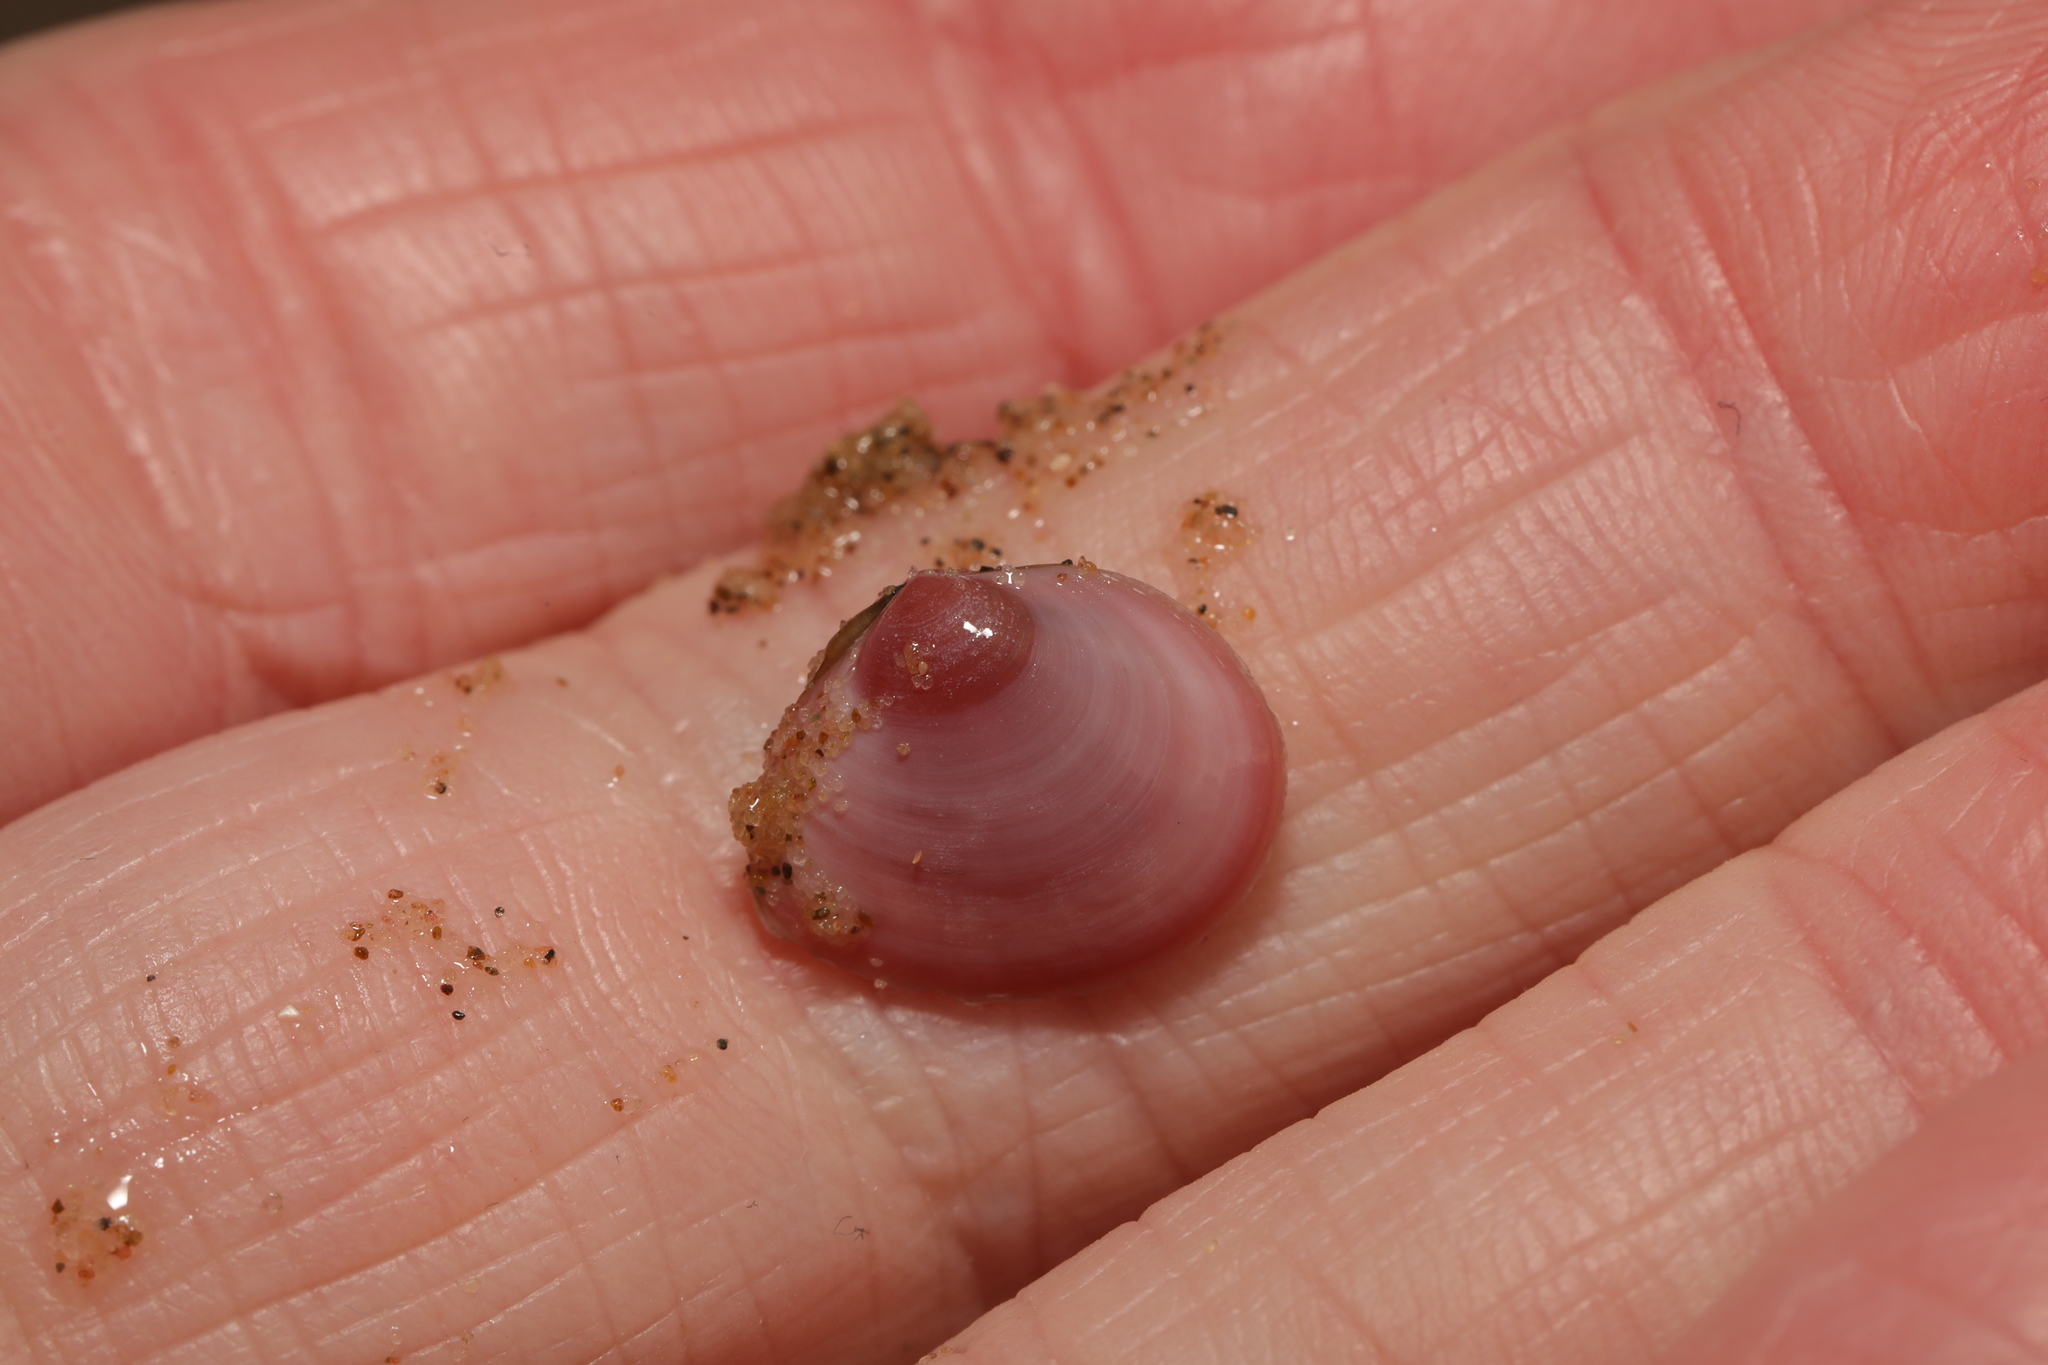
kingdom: Animalia
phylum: Mollusca
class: Bivalvia
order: Cardiida
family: Tellinidae
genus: Macoma
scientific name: Macoma balthica
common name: Baltic tellin
